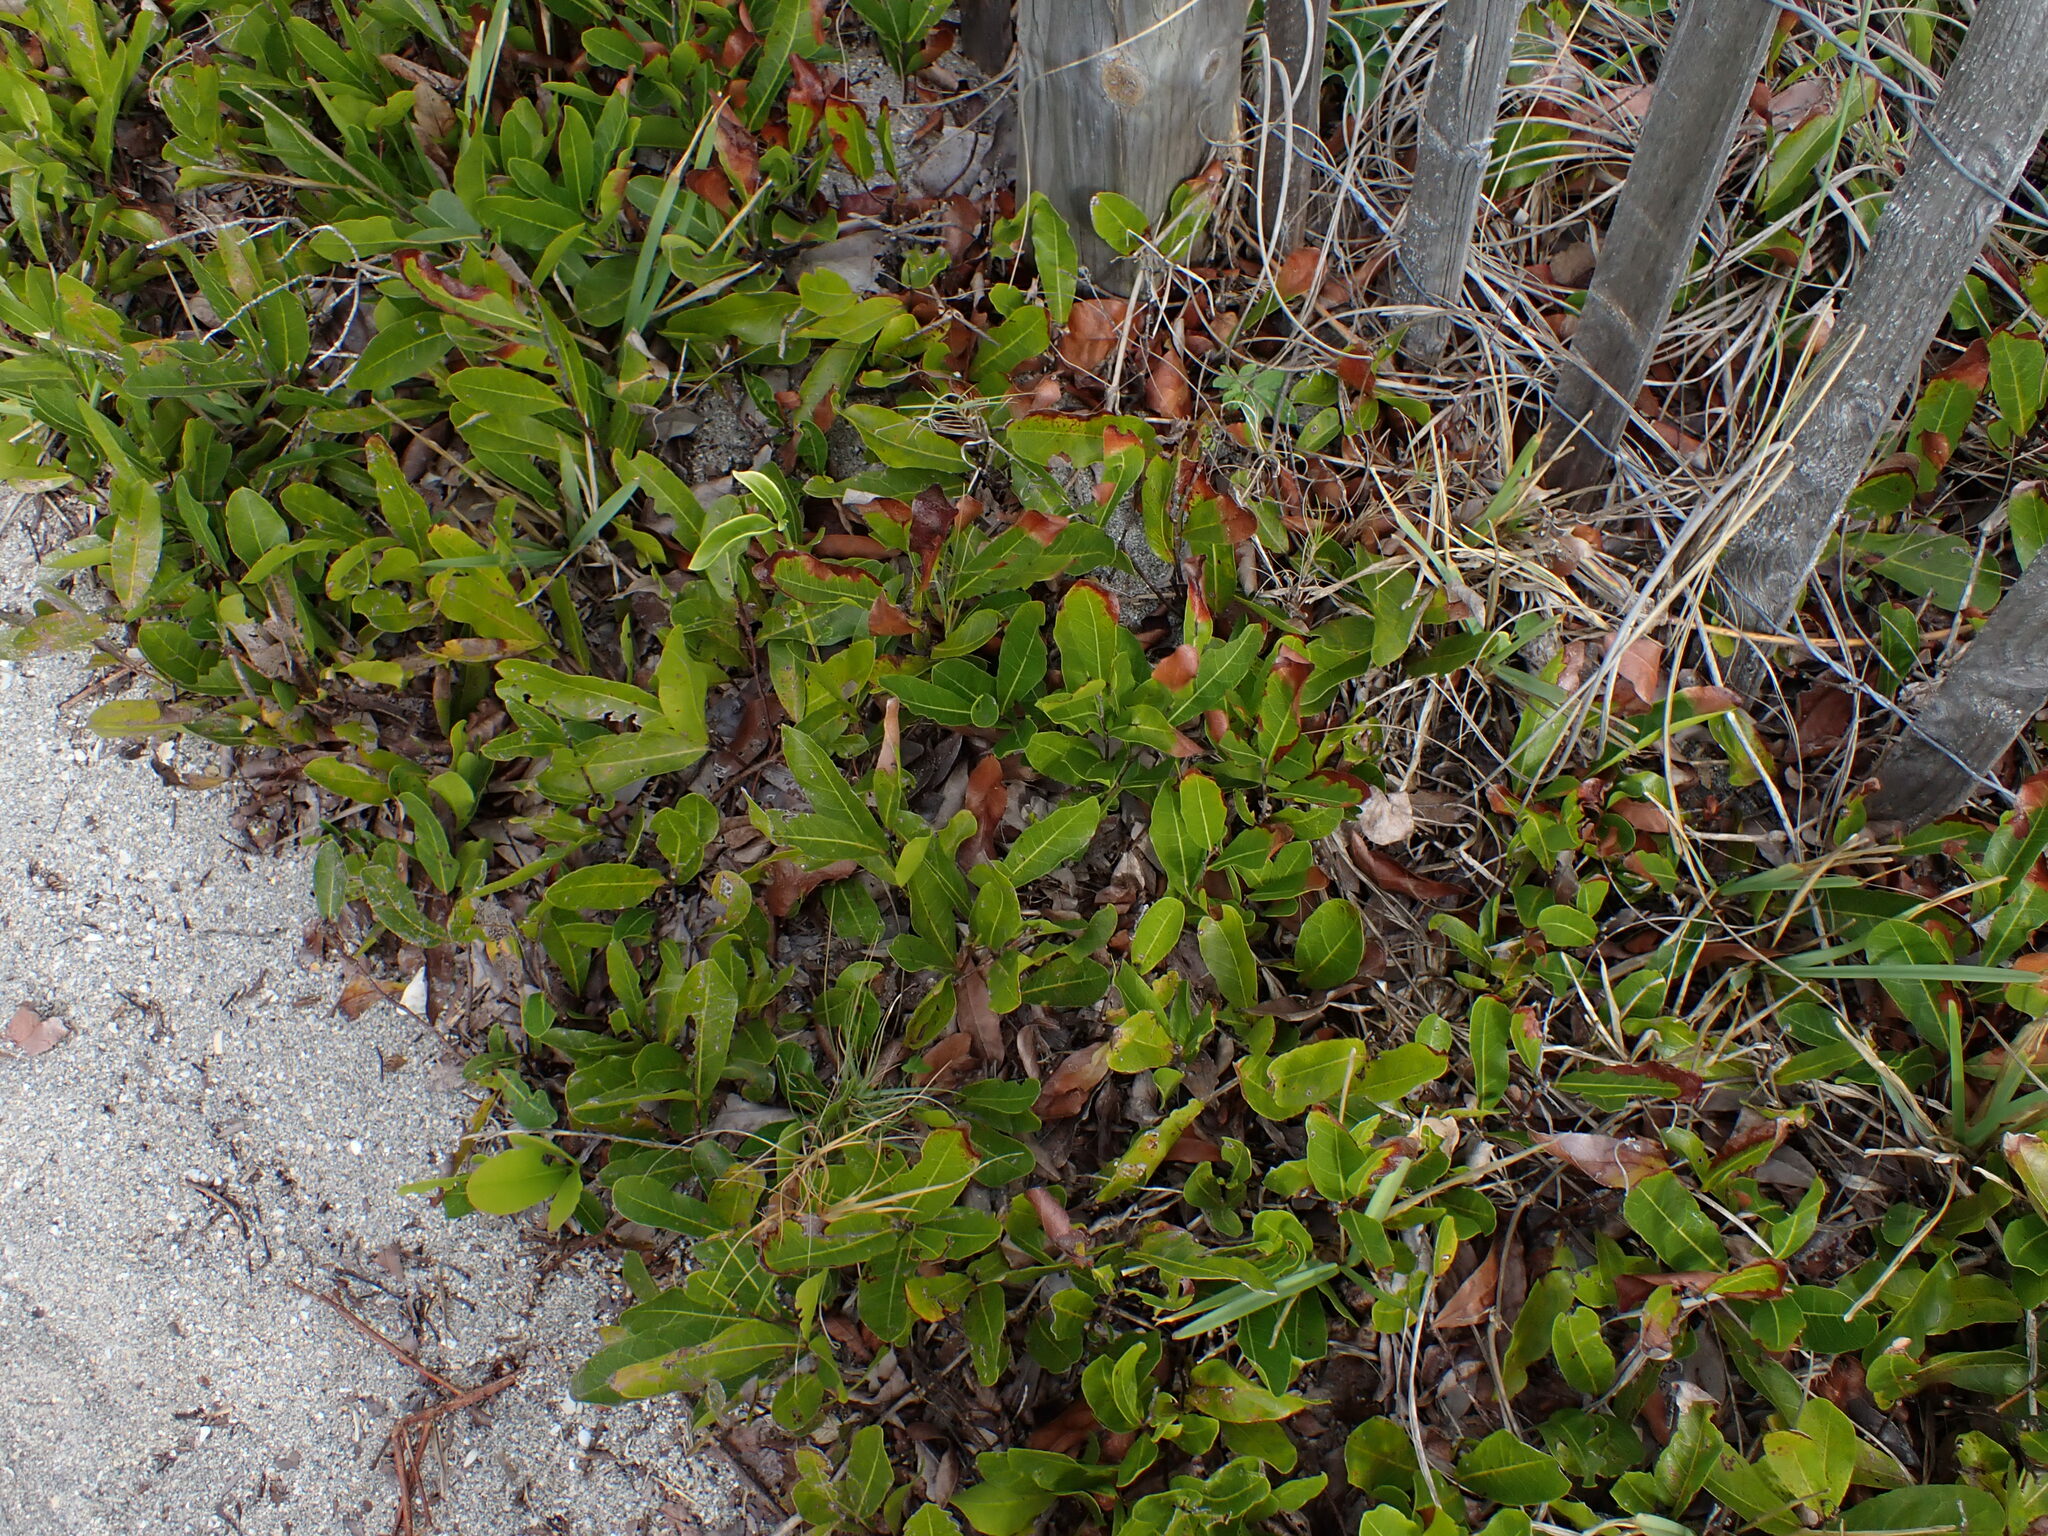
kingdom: Plantae
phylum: Tracheophyta
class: Magnoliopsida
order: Malpighiales
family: Chrysobalanaceae
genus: Geobalanus
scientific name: Geobalanus oblongifolius
